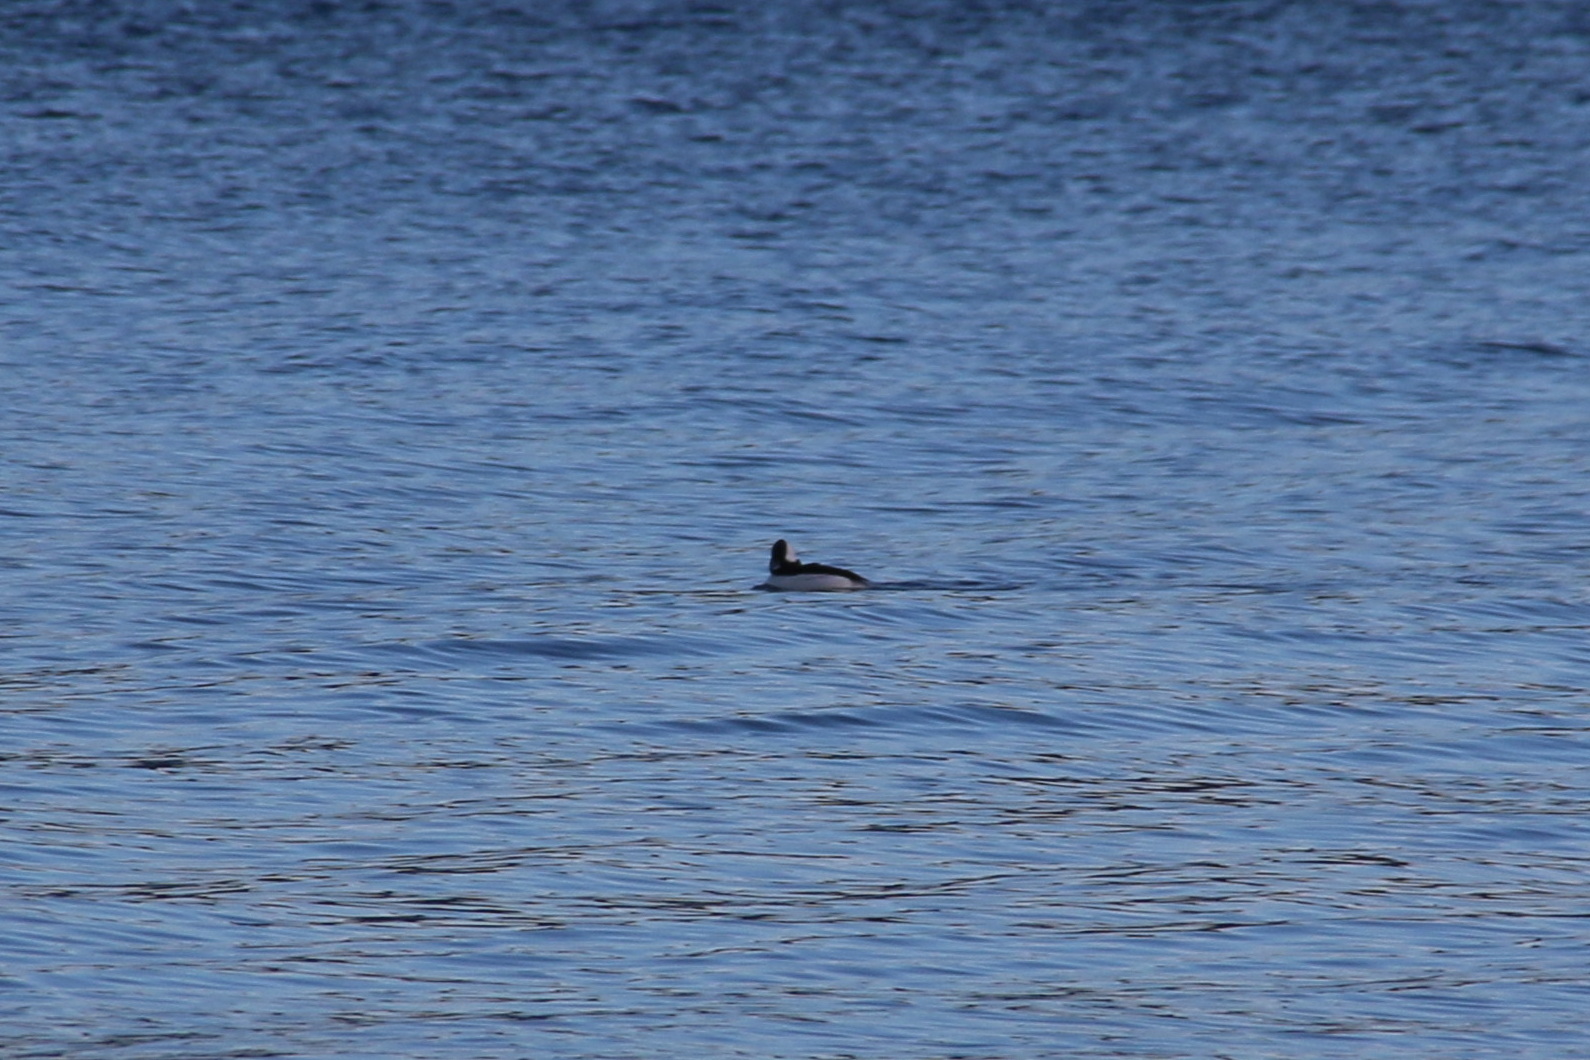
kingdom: Animalia
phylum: Chordata
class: Aves
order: Anseriformes
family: Anatidae
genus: Bucephala
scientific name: Bucephala albeola
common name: Bufflehead
